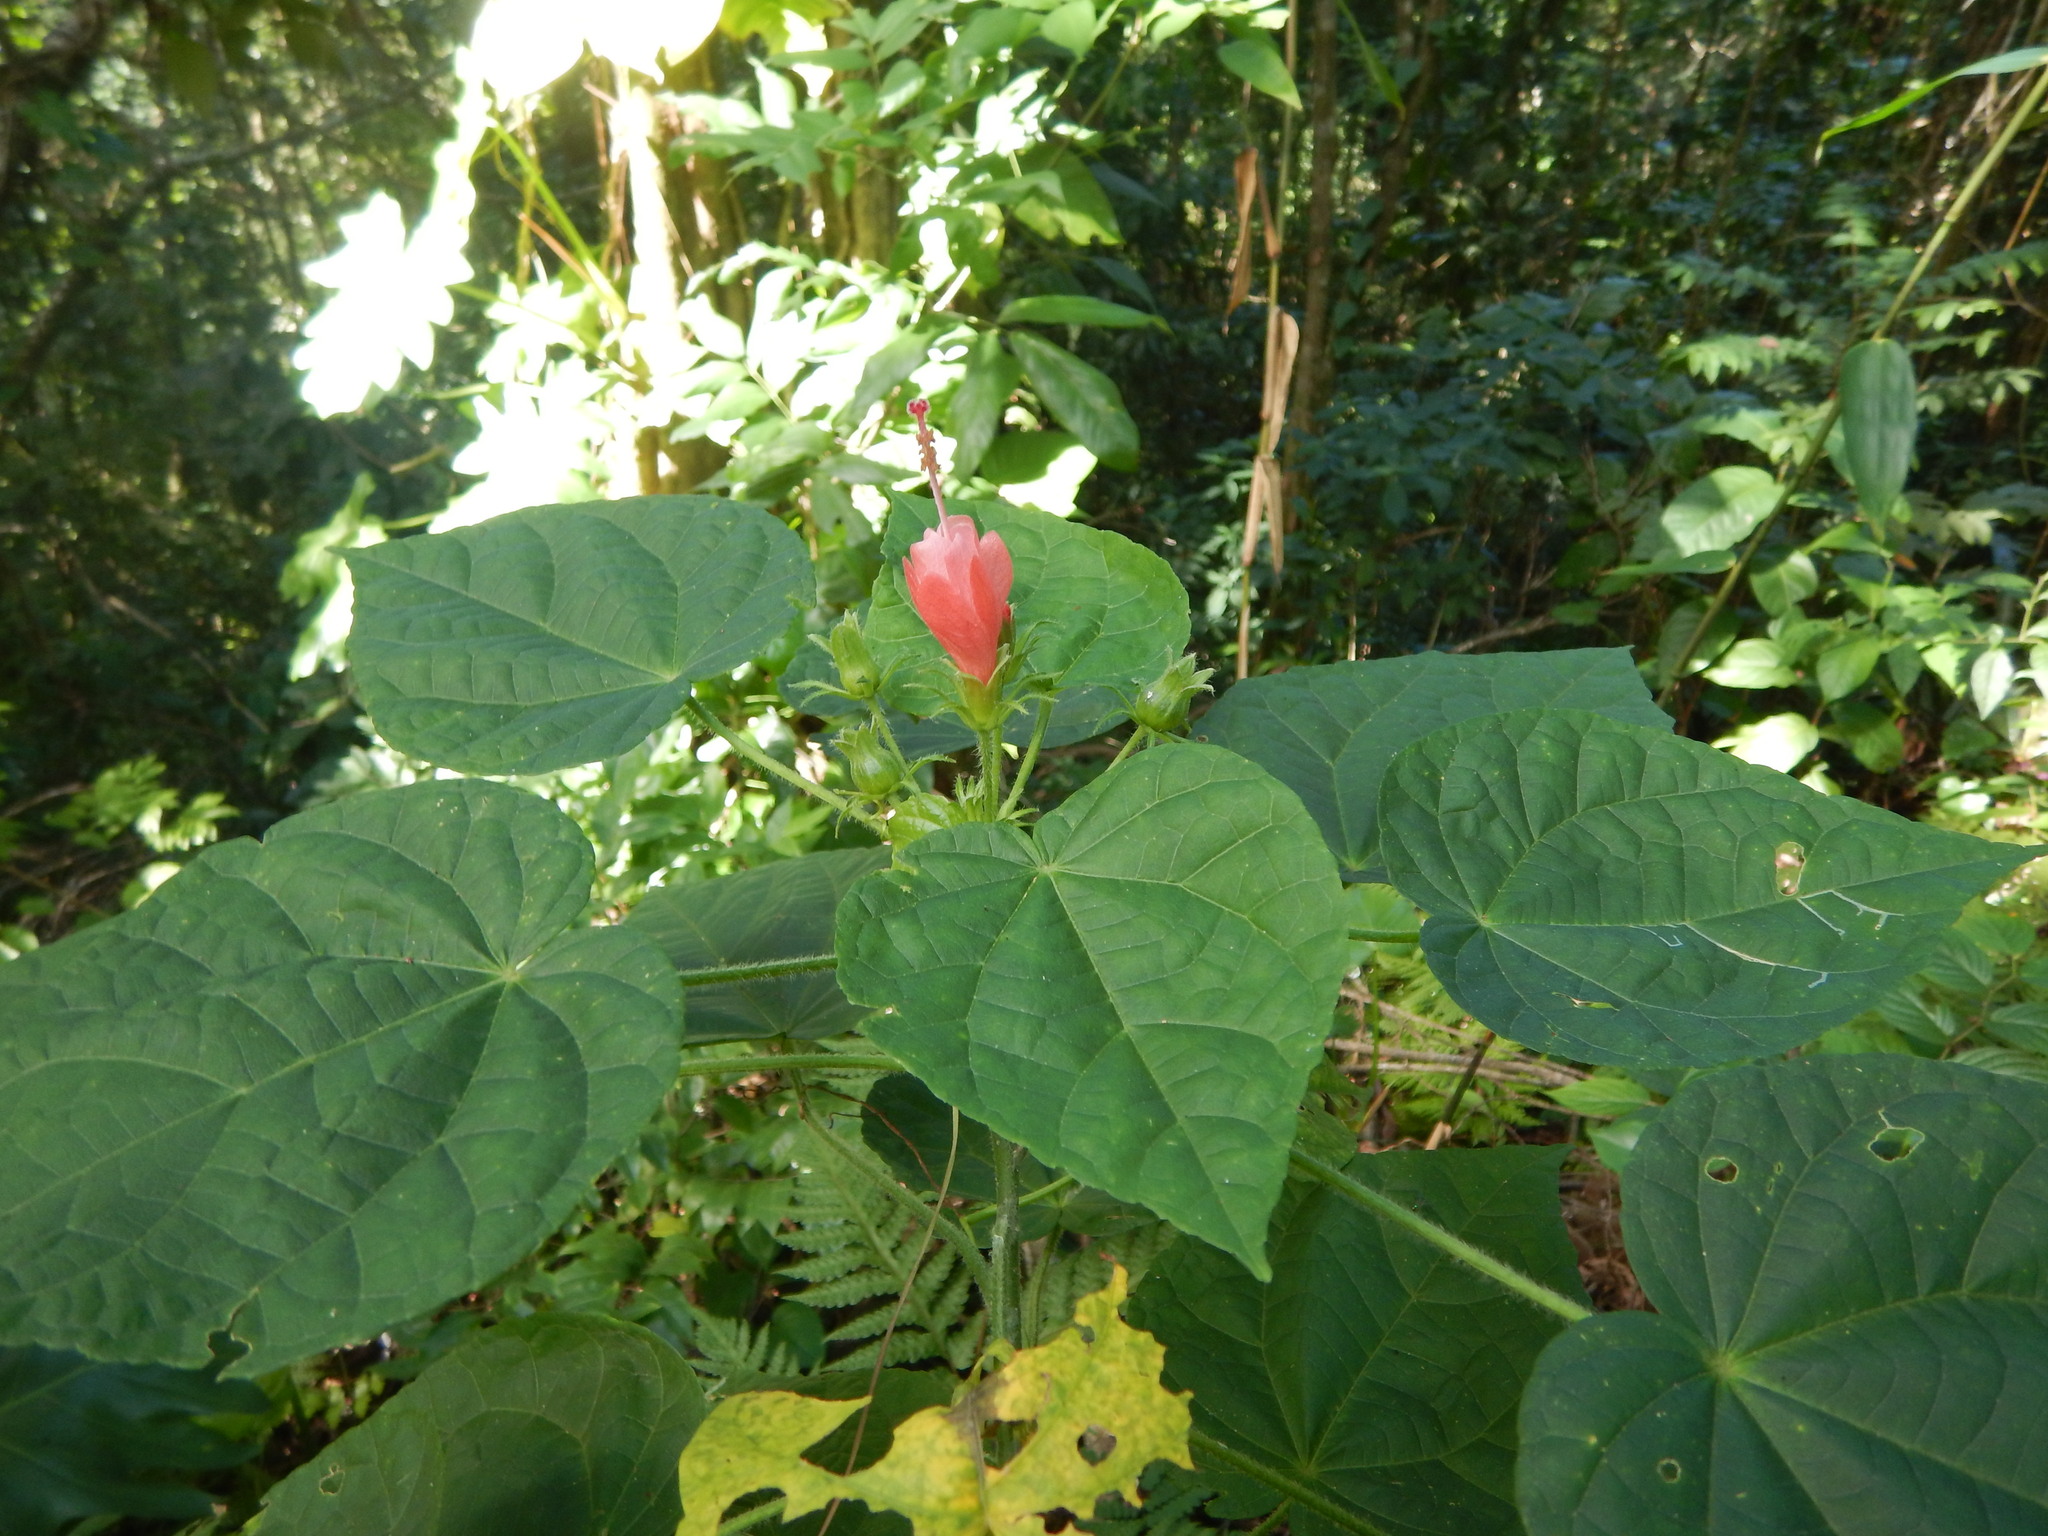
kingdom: Plantae
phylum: Tracheophyta
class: Magnoliopsida
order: Malvales
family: Malvaceae
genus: Malvaviscus
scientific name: Malvaviscus arboreus
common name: Wax mallow
